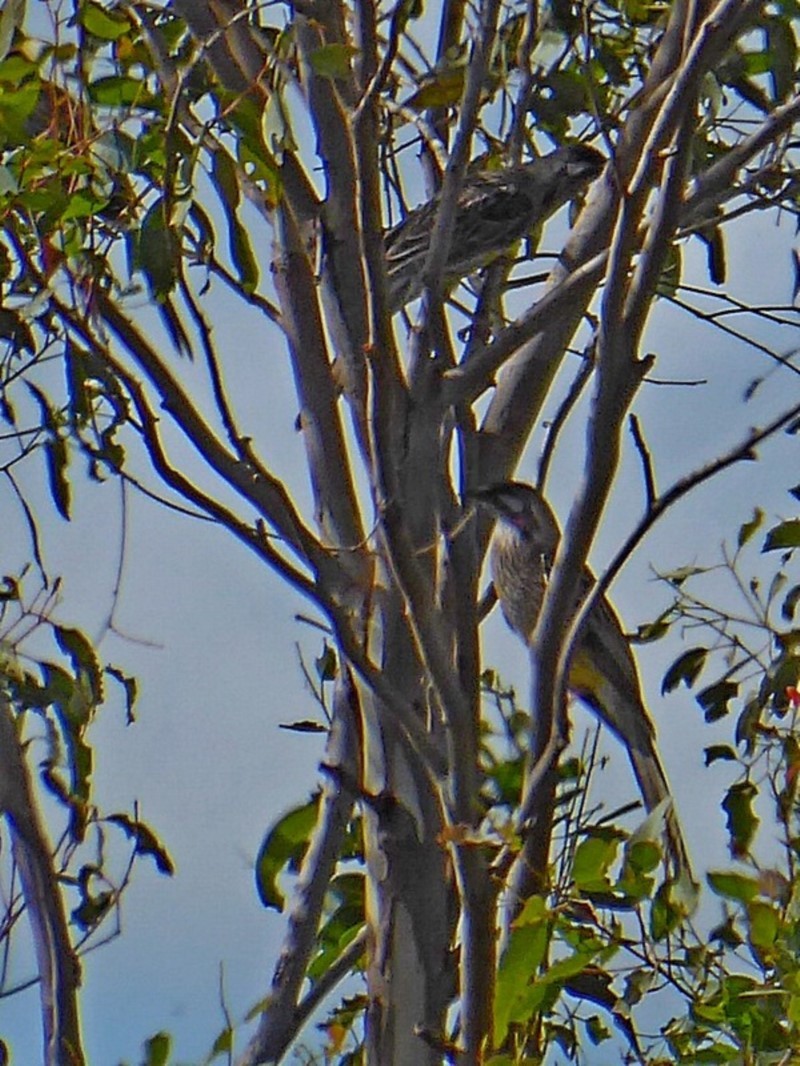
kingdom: Animalia
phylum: Chordata
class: Aves
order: Passeriformes
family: Meliphagidae
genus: Anthochaera
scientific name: Anthochaera carunculata
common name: Red wattlebird
